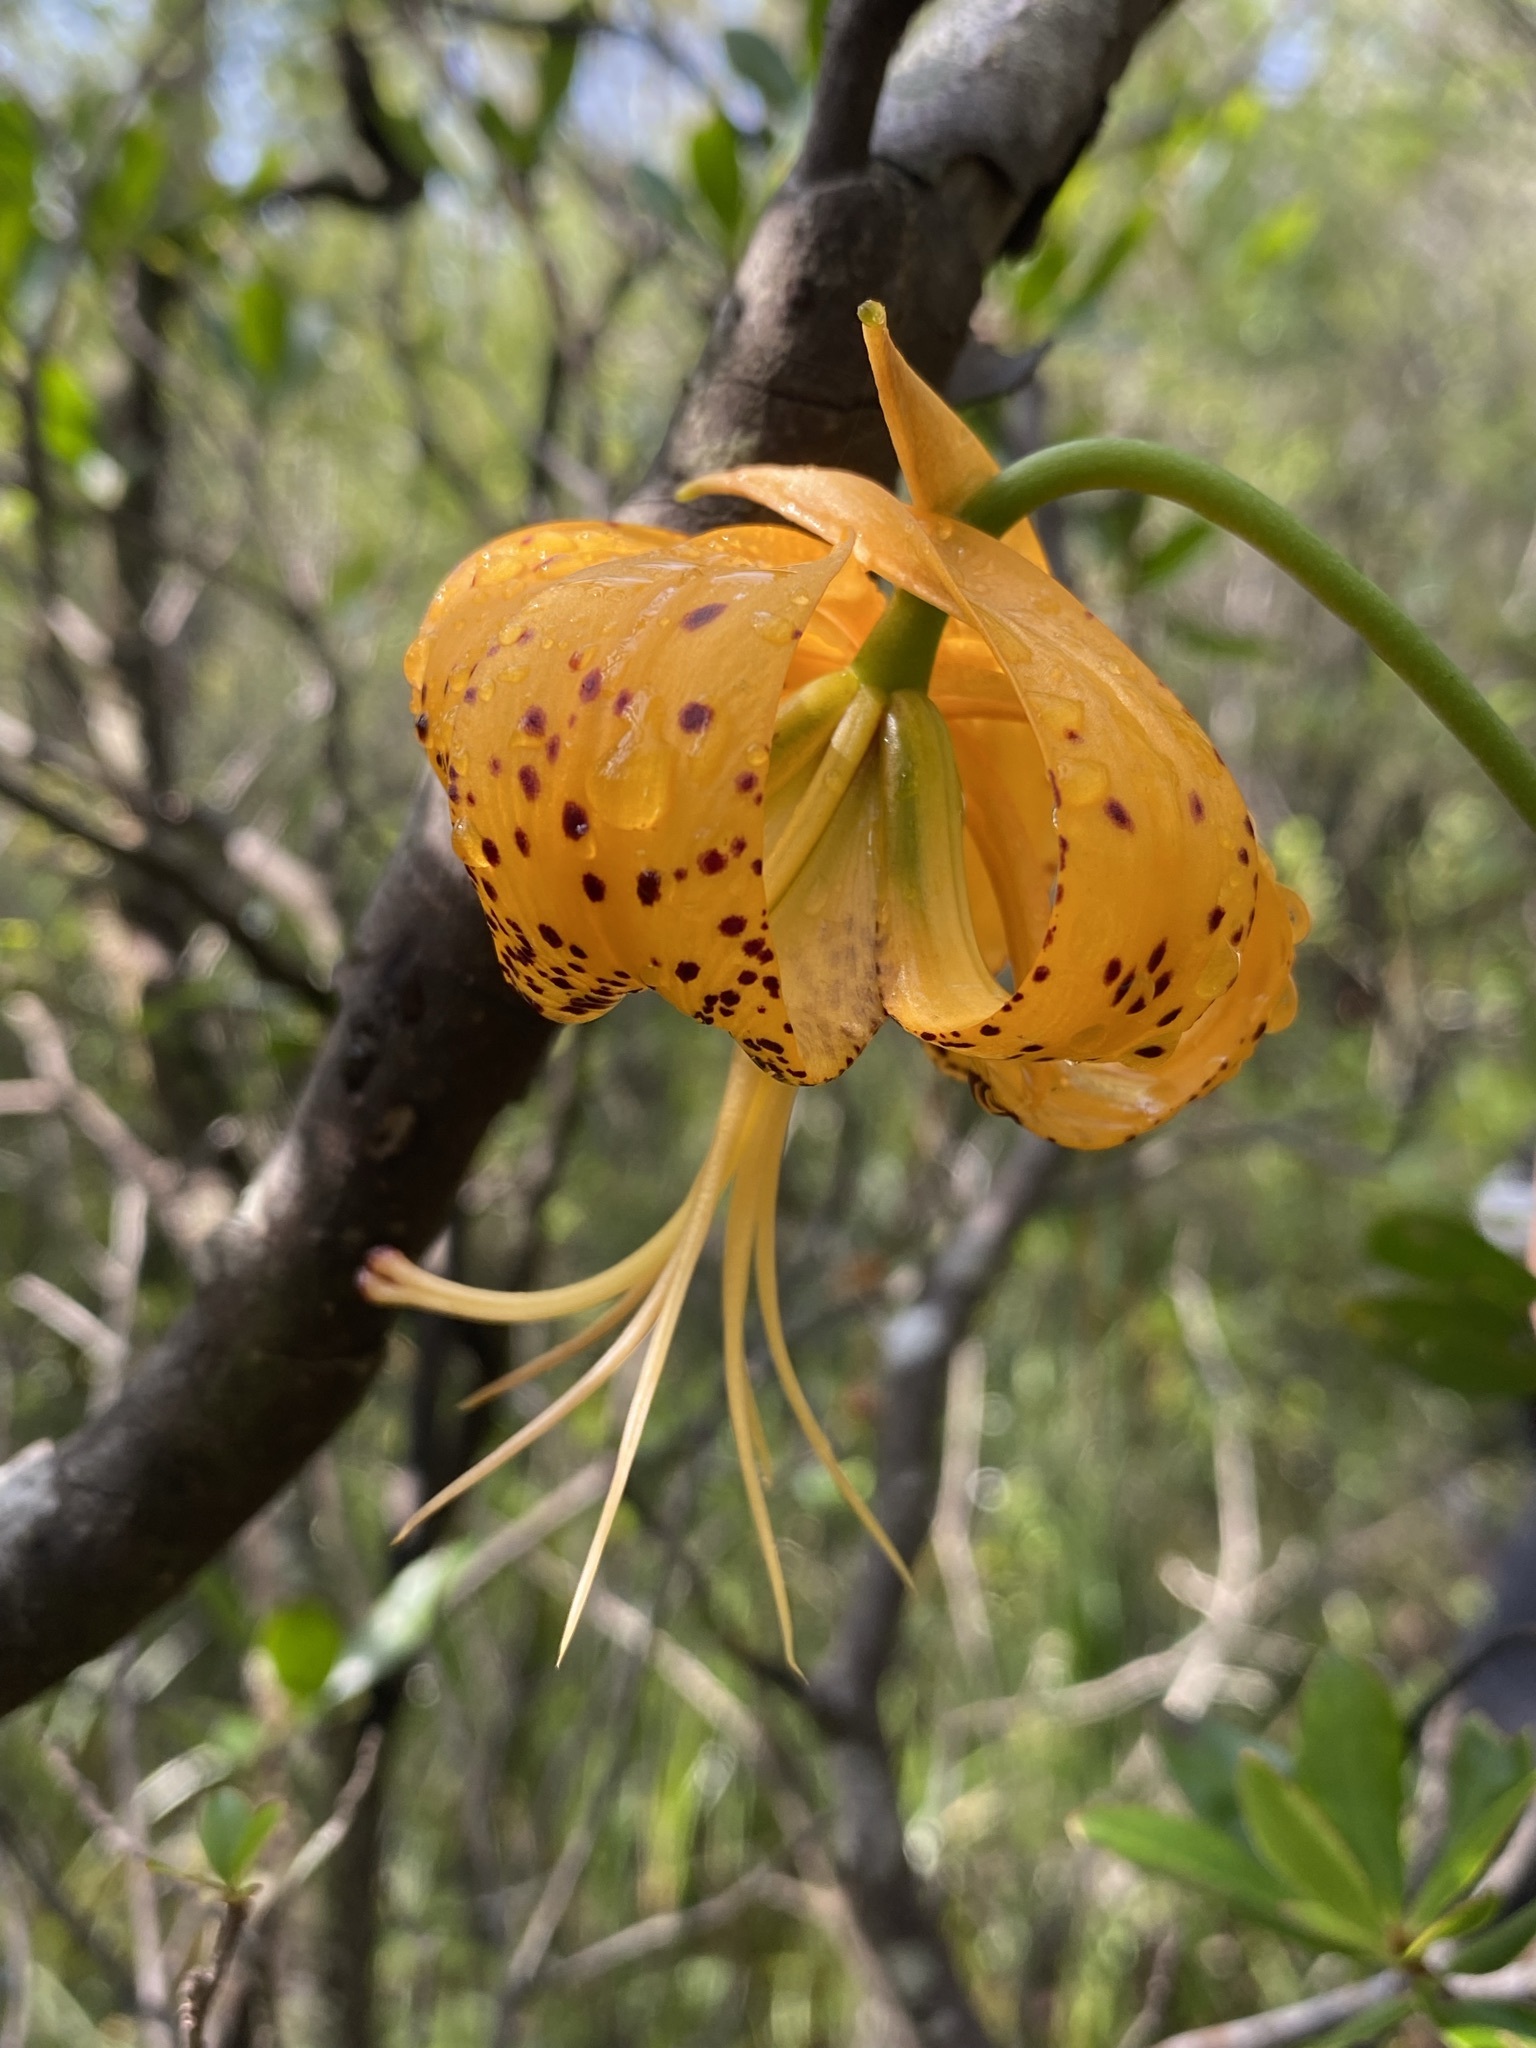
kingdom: Plantae
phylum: Tracheophyta
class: Liliopsida
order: Liliales
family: Liliaceae
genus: Lilium
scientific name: Lilium iridollae
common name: Panhandle lily
